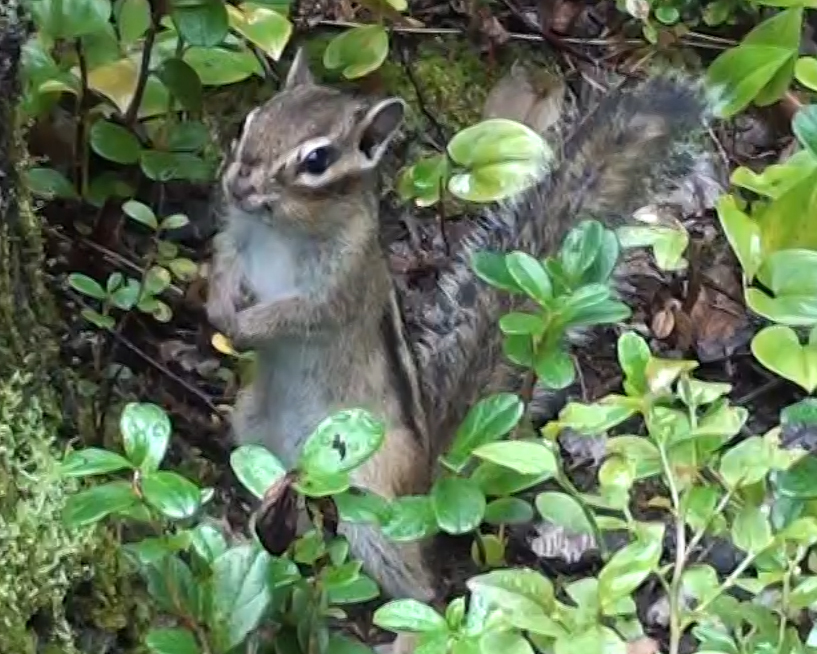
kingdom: Animalia
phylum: Chordata
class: Mammalia
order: Rodentia
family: Sciuridae
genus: Tamias
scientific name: Tamias sibiricus
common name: Siberian chipmunk
